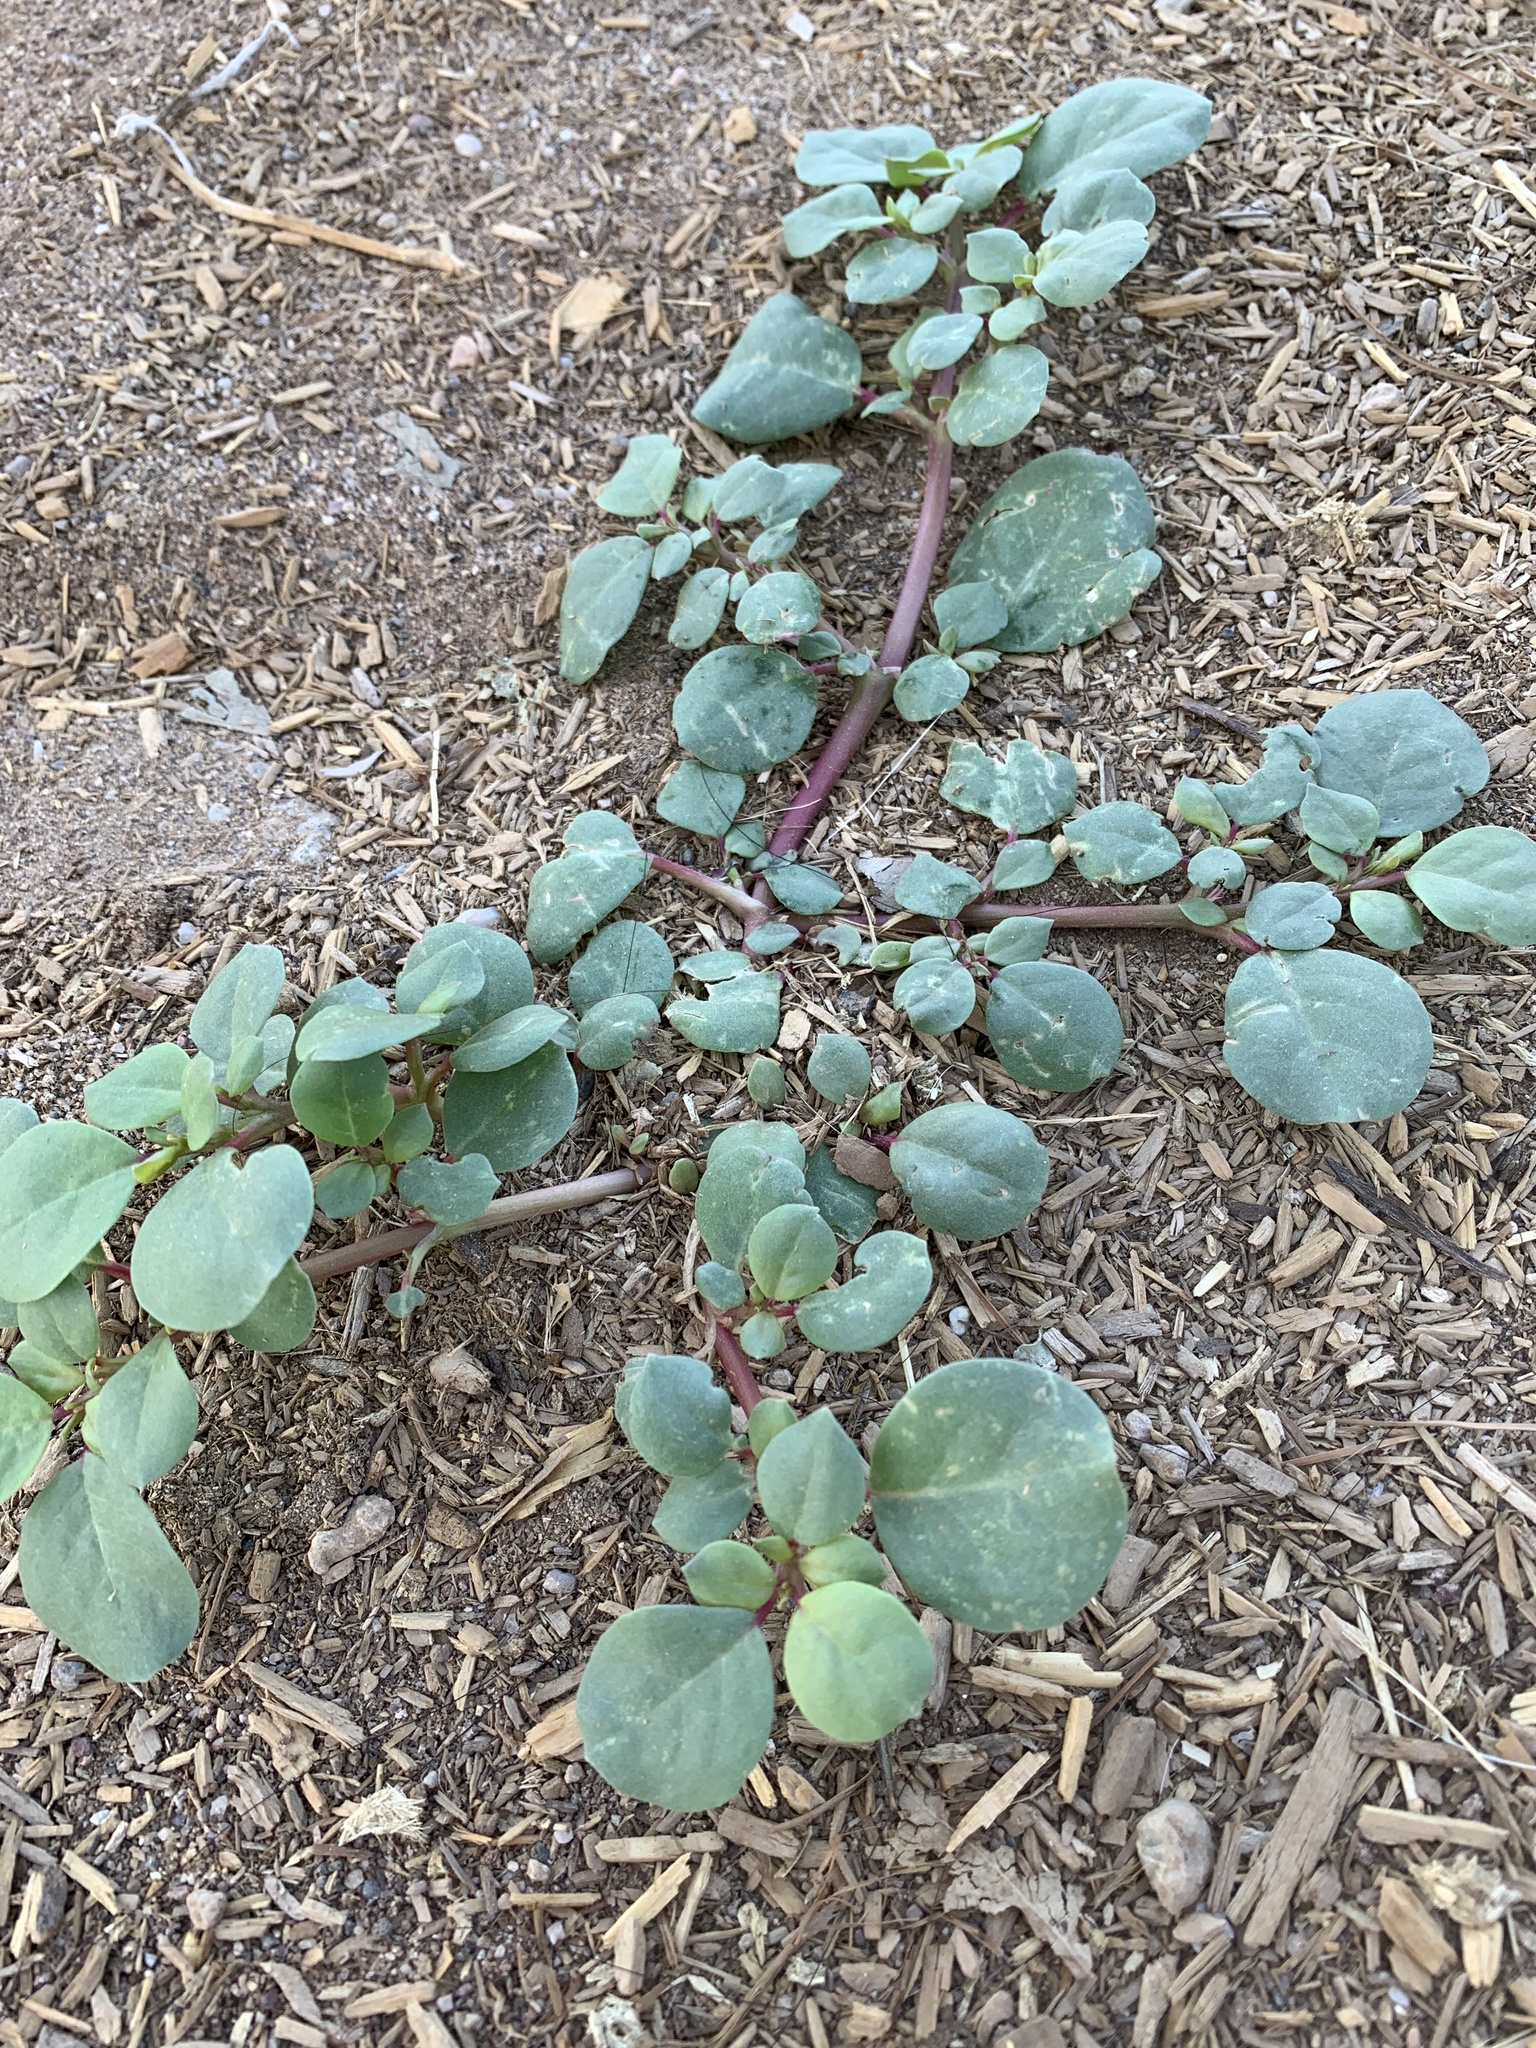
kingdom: Plantae
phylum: Tracheophyta
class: Magnoliopsida
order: Caryophyllales
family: Aizoaceae
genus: Trianthema
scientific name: Trianthema portulacastrum
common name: Desert horsepurslane
